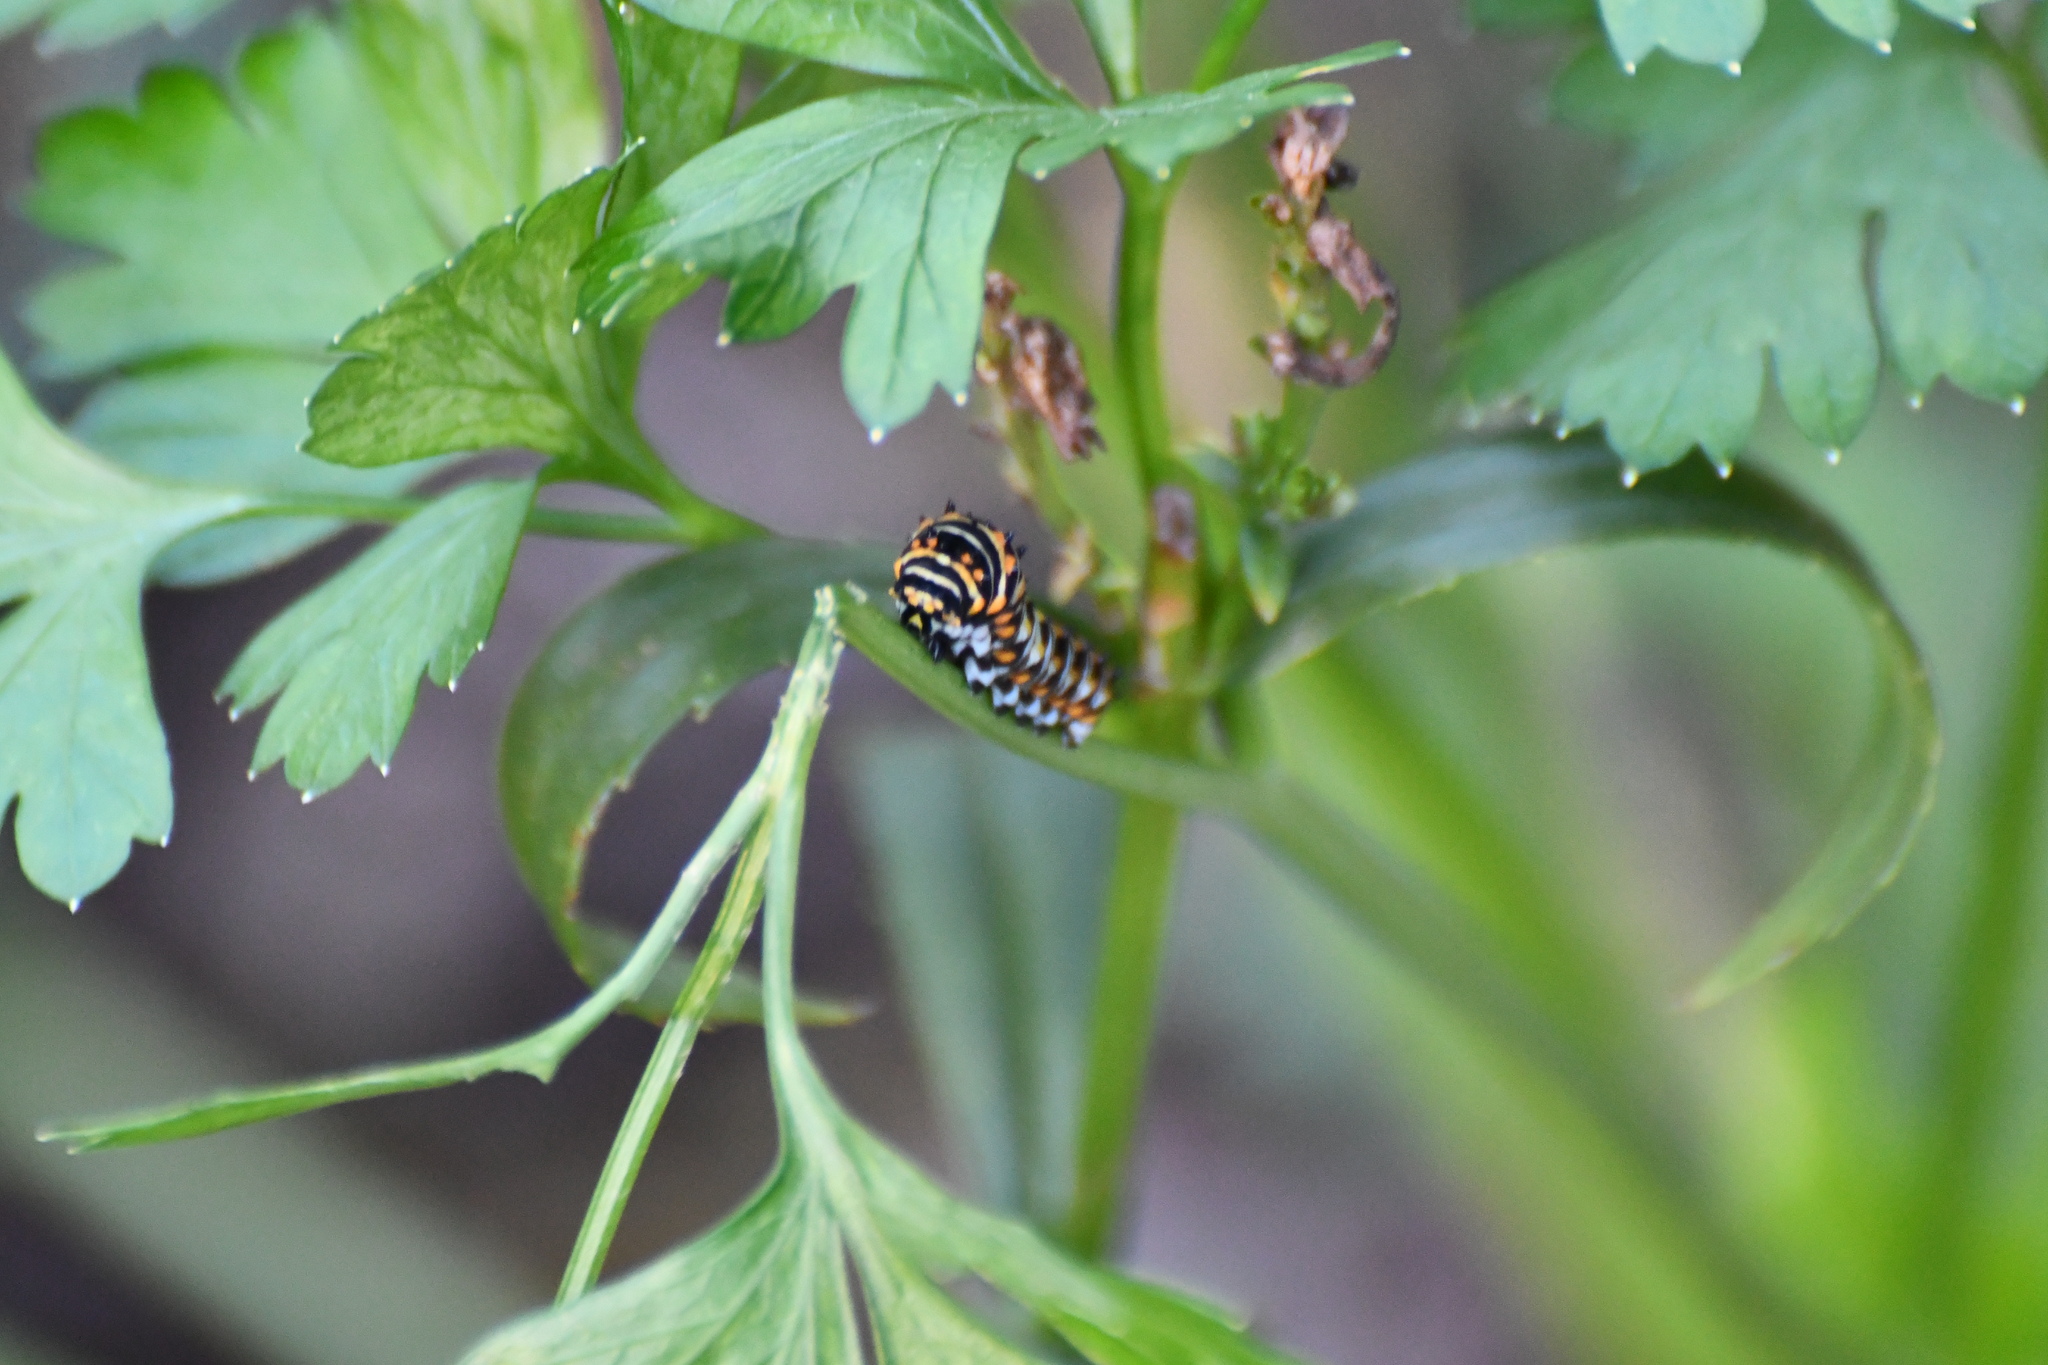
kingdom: Animalia
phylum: Arthropoda
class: Insecta
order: Lepidoptera
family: Papilionidae
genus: Papilio
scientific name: Papilio polyxenes
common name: Black swallowtail
